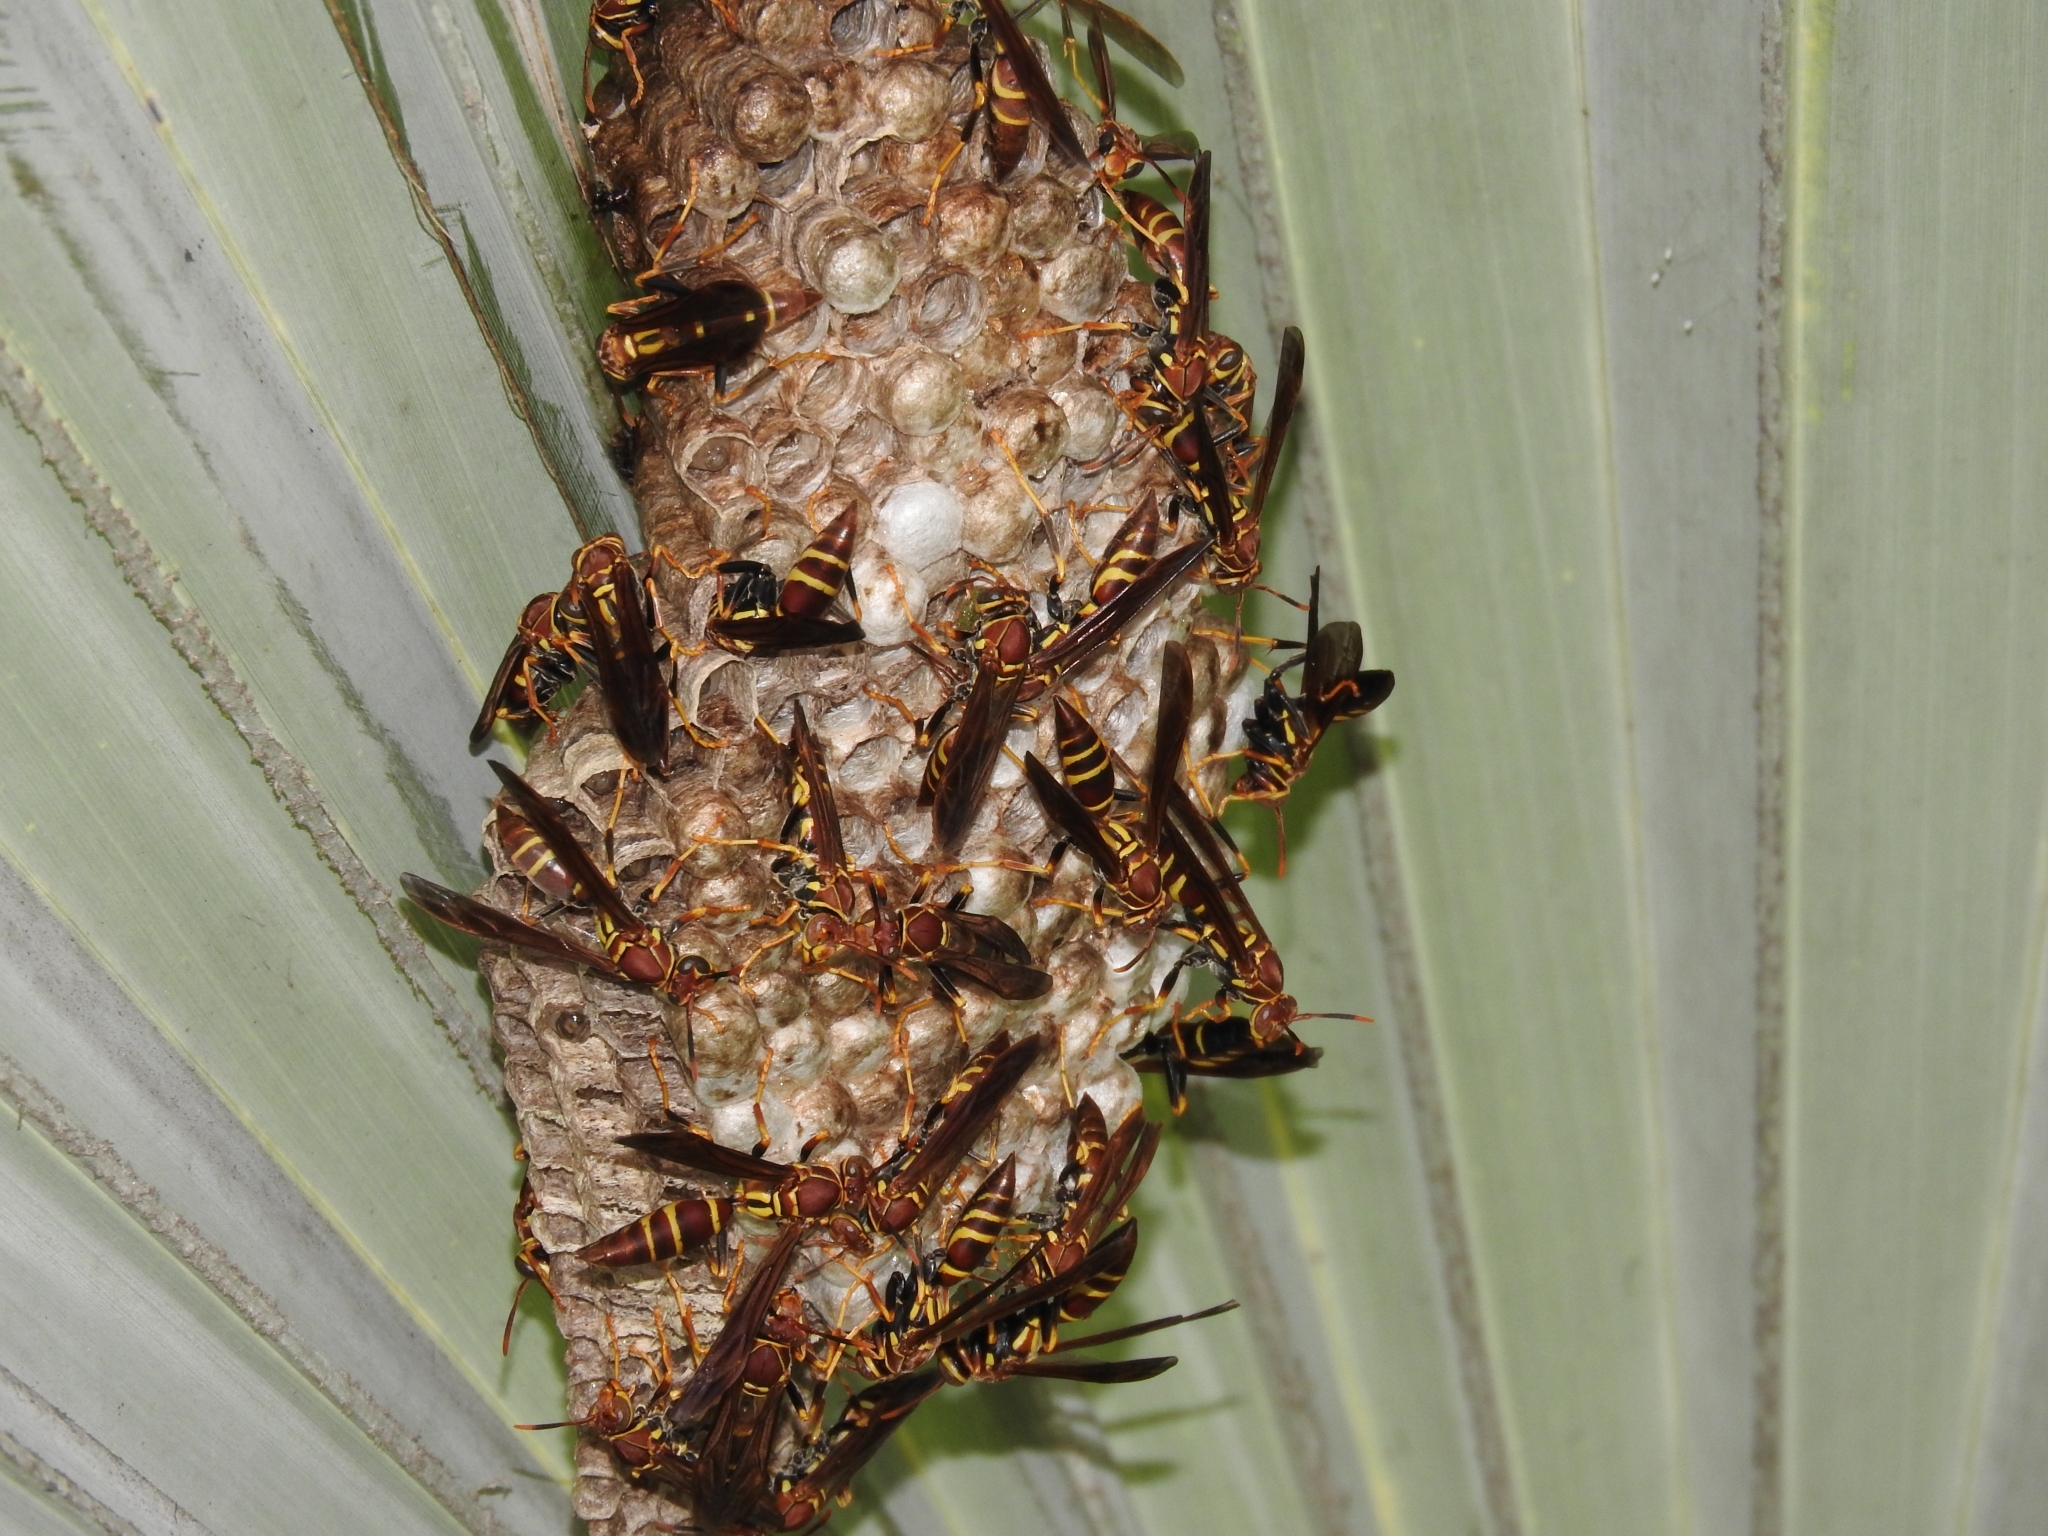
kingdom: Animalia
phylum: Arthropoda
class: Insecta
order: Hymenoptera
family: Eumenidae
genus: Polistes
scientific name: Polistes instabilis
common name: Unstable paper wasp
